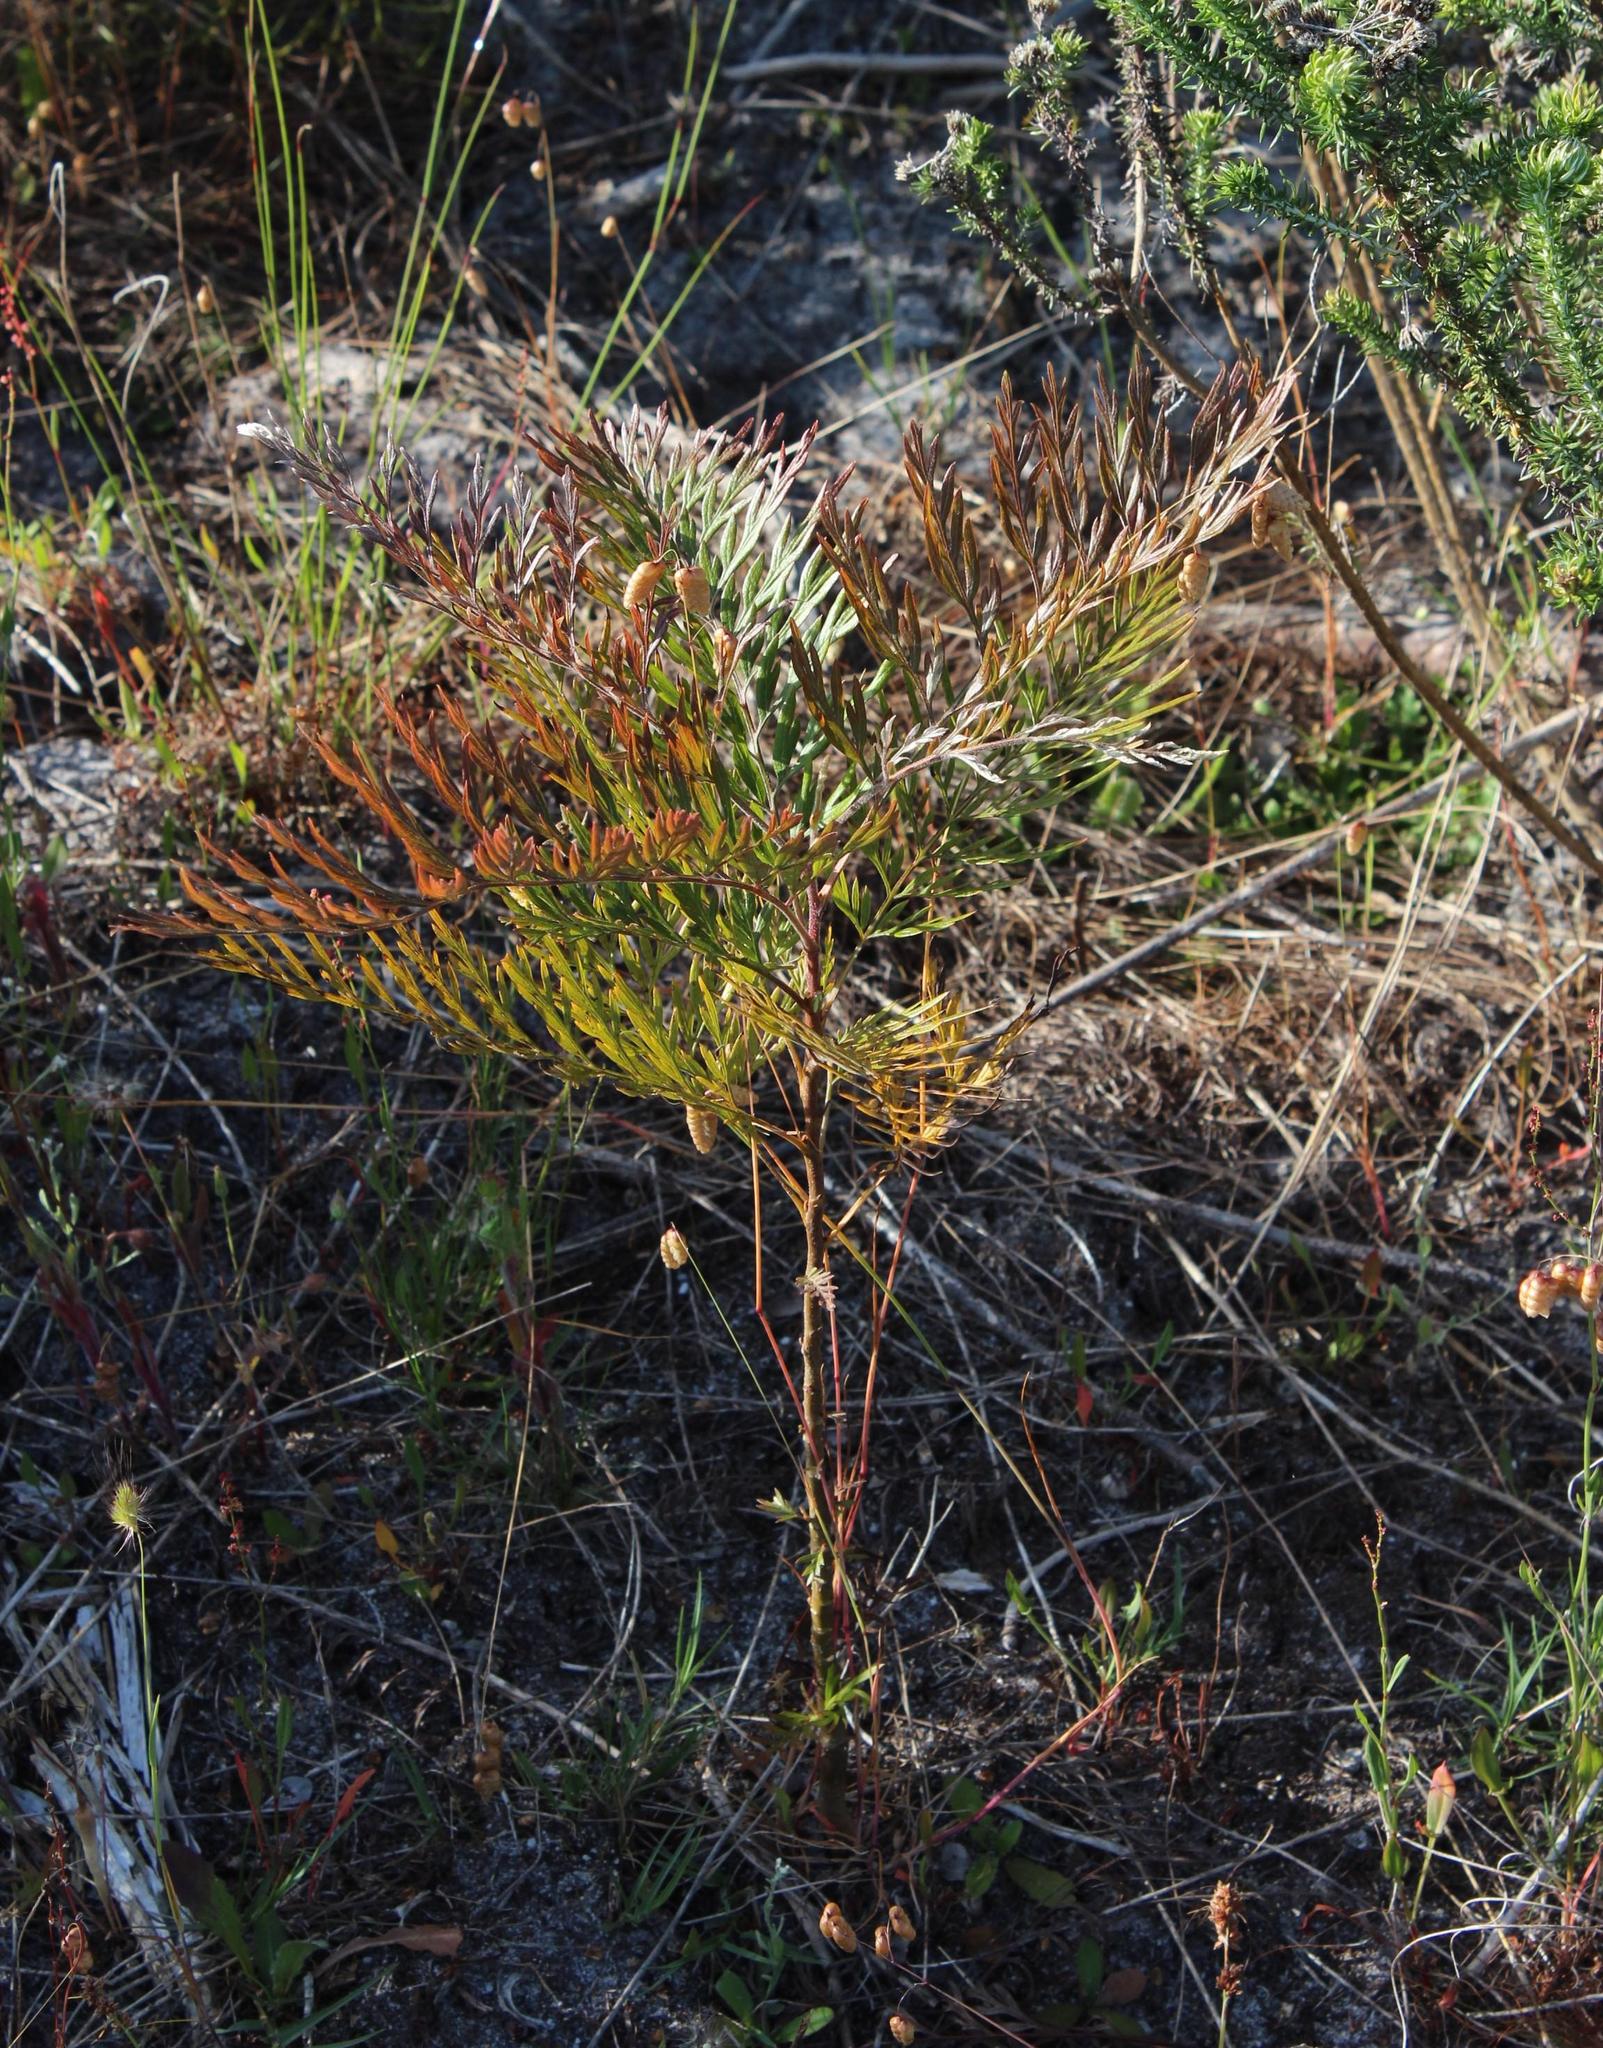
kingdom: Plantae
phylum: Tracheophyta
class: Magnoliopsida
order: Proteales
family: Proteaceae
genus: Grevillea
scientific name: Grevillea robusta
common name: Silkoak
